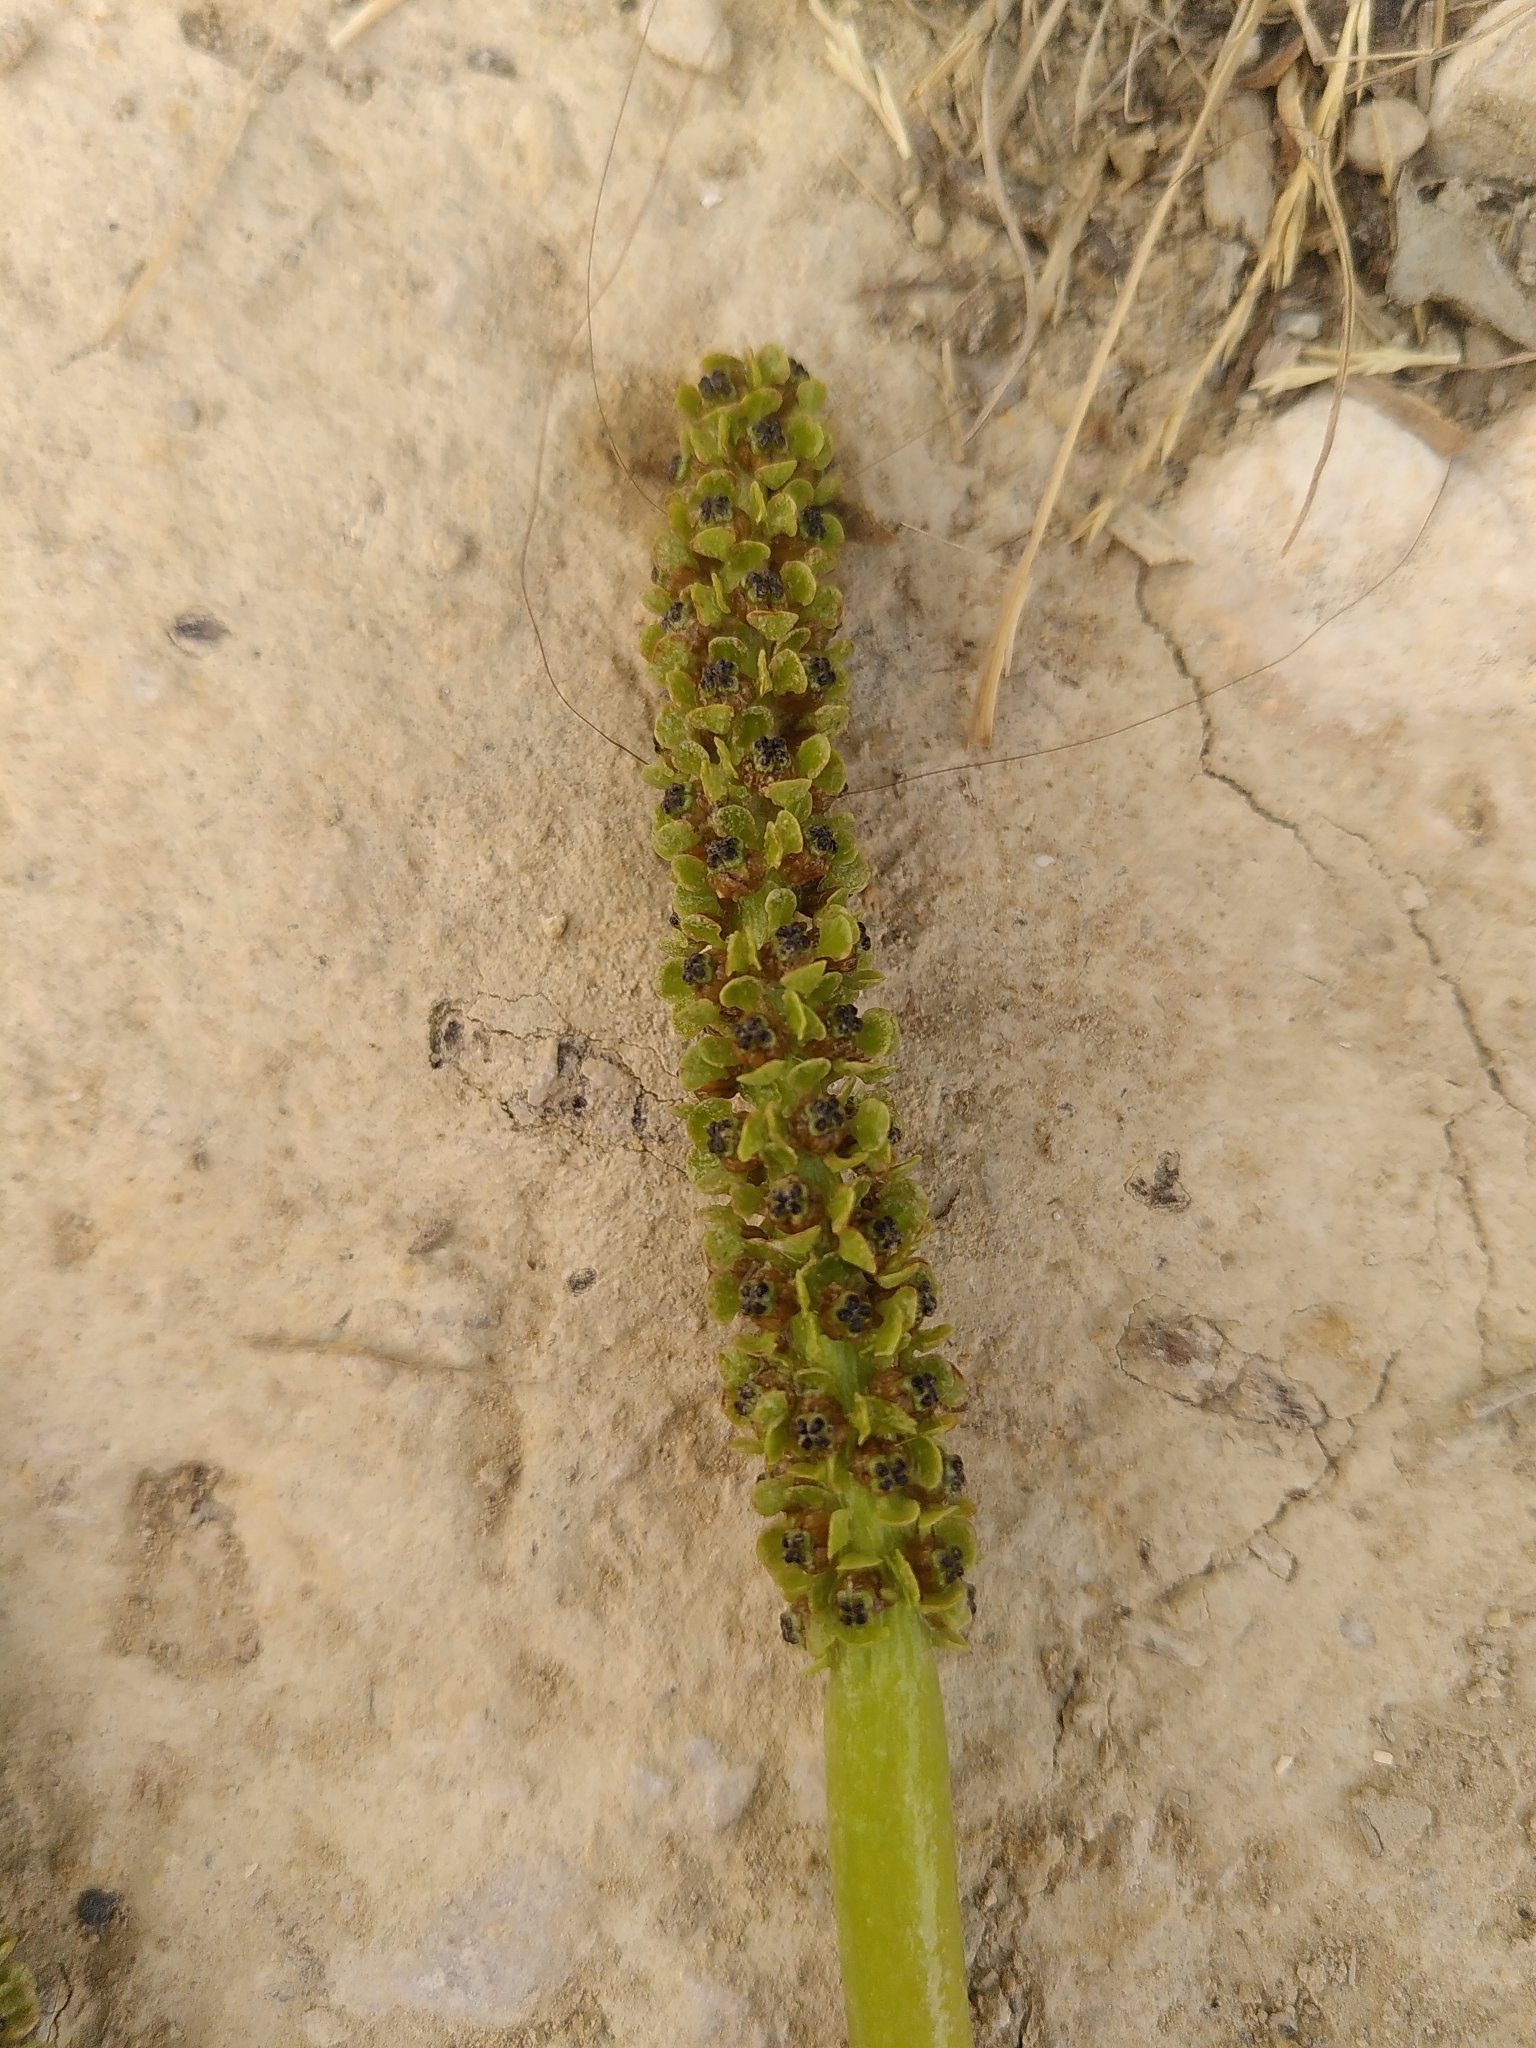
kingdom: Plantae
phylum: Tracheophyta
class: Liliopsida
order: Alismatales
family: Potamogetonaceae
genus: Potamogeton
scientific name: Potamogeton lucens
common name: Shining pondweed
